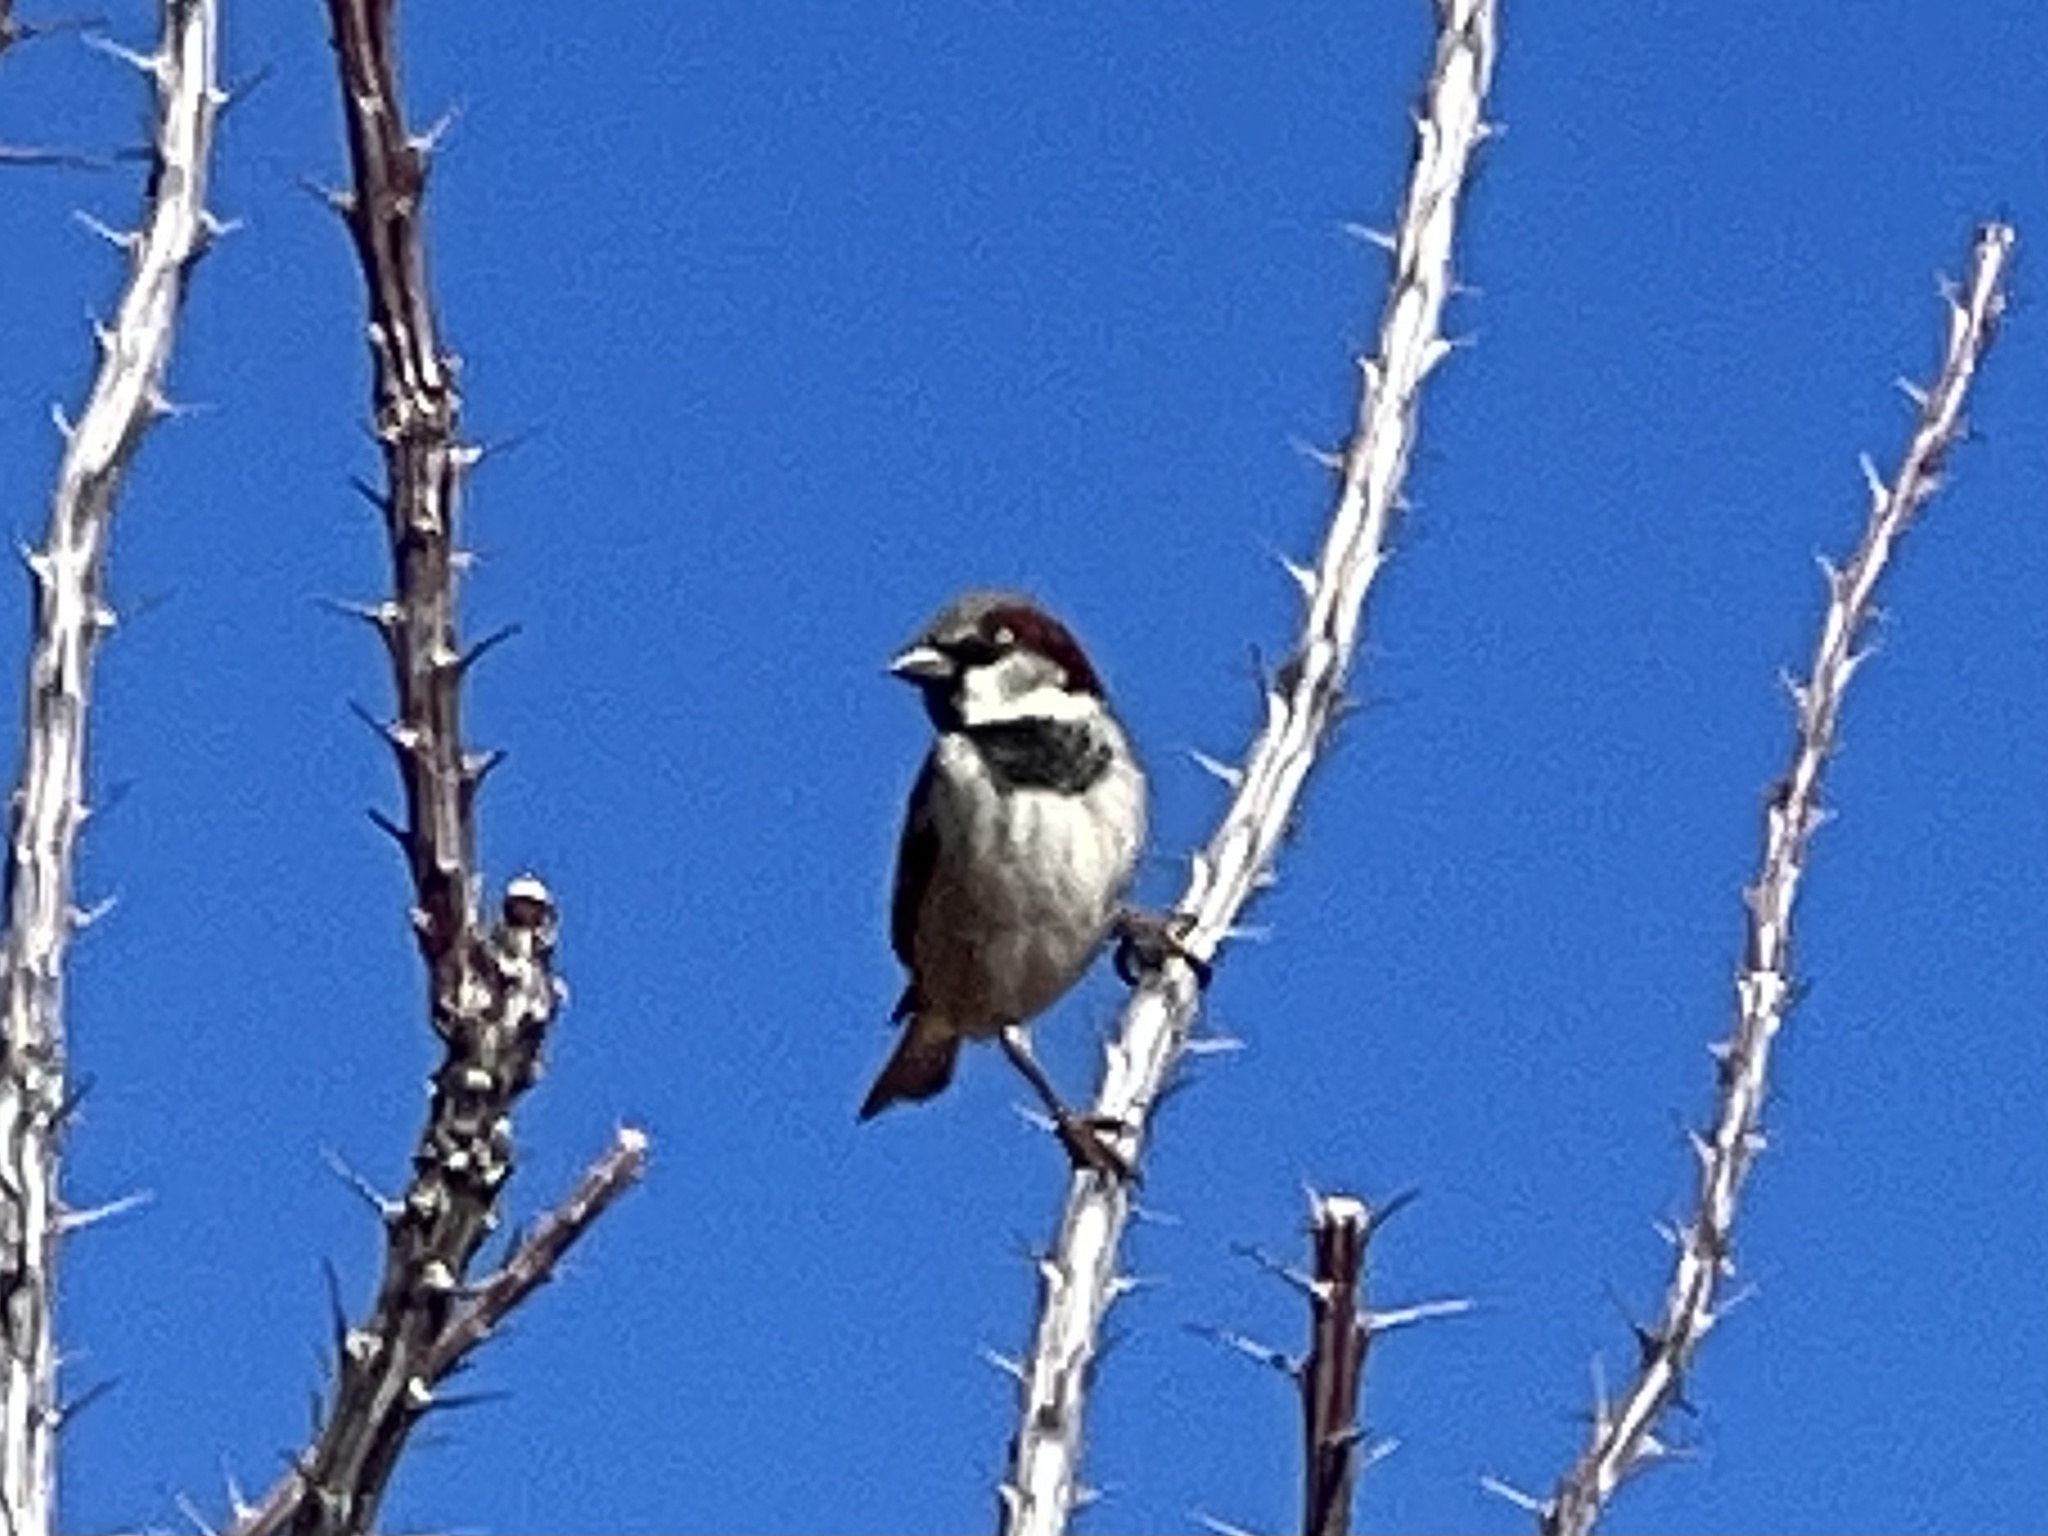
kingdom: Animalia
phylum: Chordata
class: Aves
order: Passeriformes
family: Passeridae
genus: Passer
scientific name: Passer domesticus
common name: House sparrow
